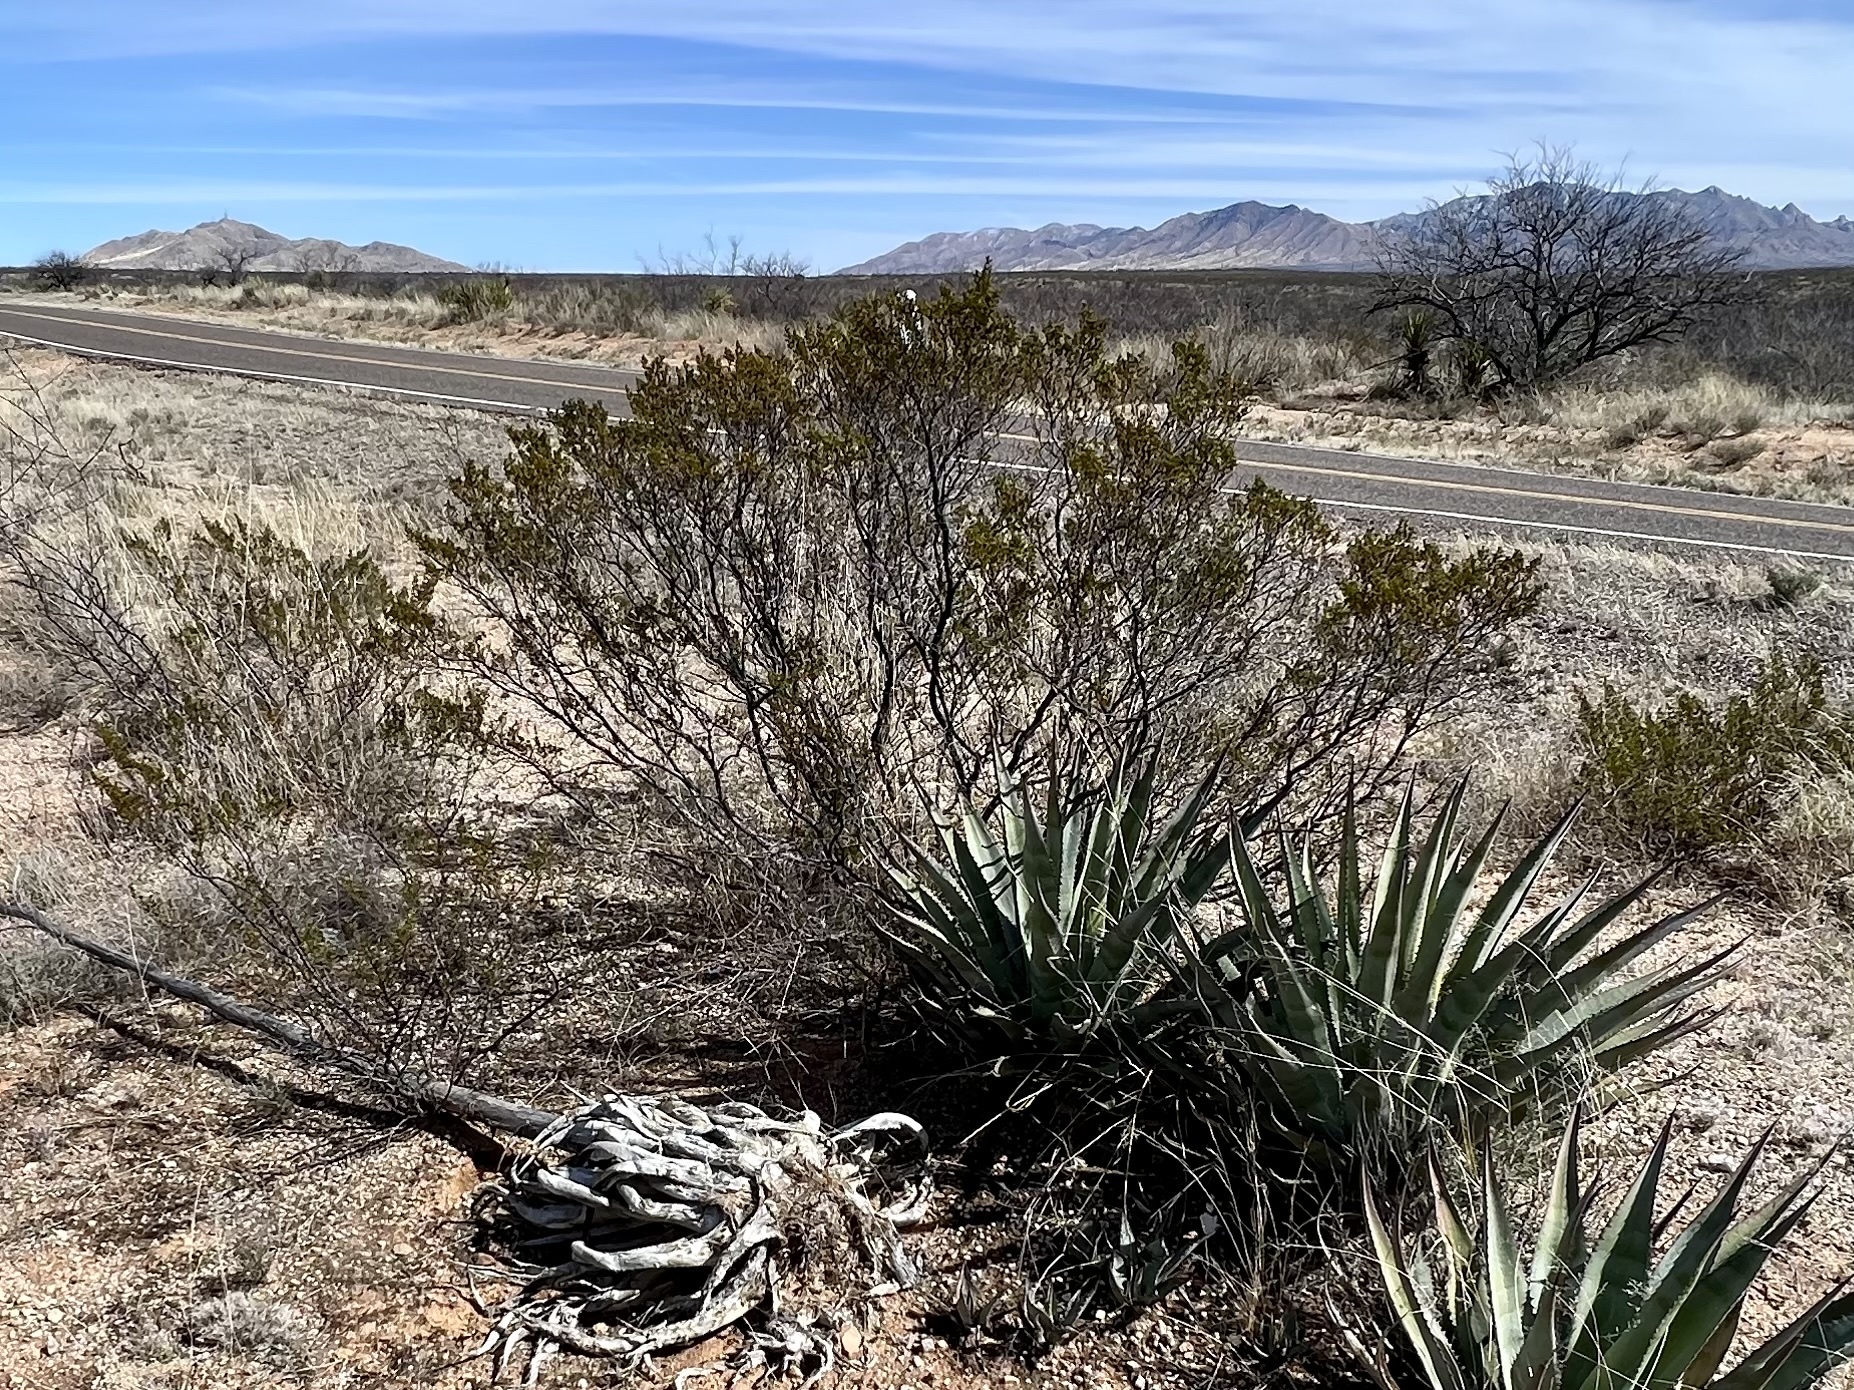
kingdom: Plantae
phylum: Tracheophyta
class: Magnoliopsida
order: Zygophyllales
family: Zygophyllaceae
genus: Larrea
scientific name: Larrea tridentata
